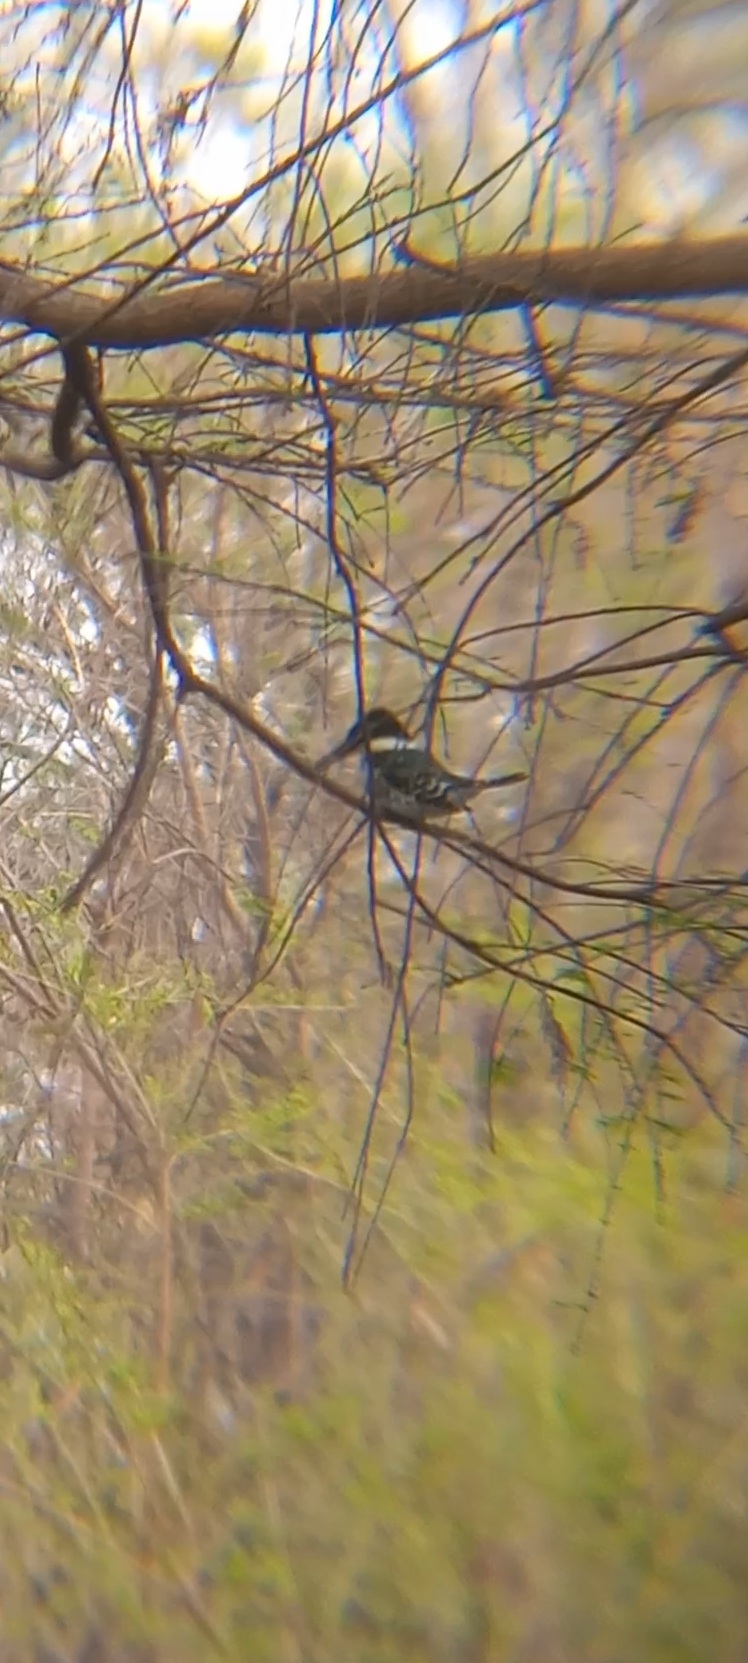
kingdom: Animalia
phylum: Chordata
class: Aves
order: Coraciiformes
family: Alcedinidae
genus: Chloroceryle
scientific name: Chloroceryle americana
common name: Green kingfisher
